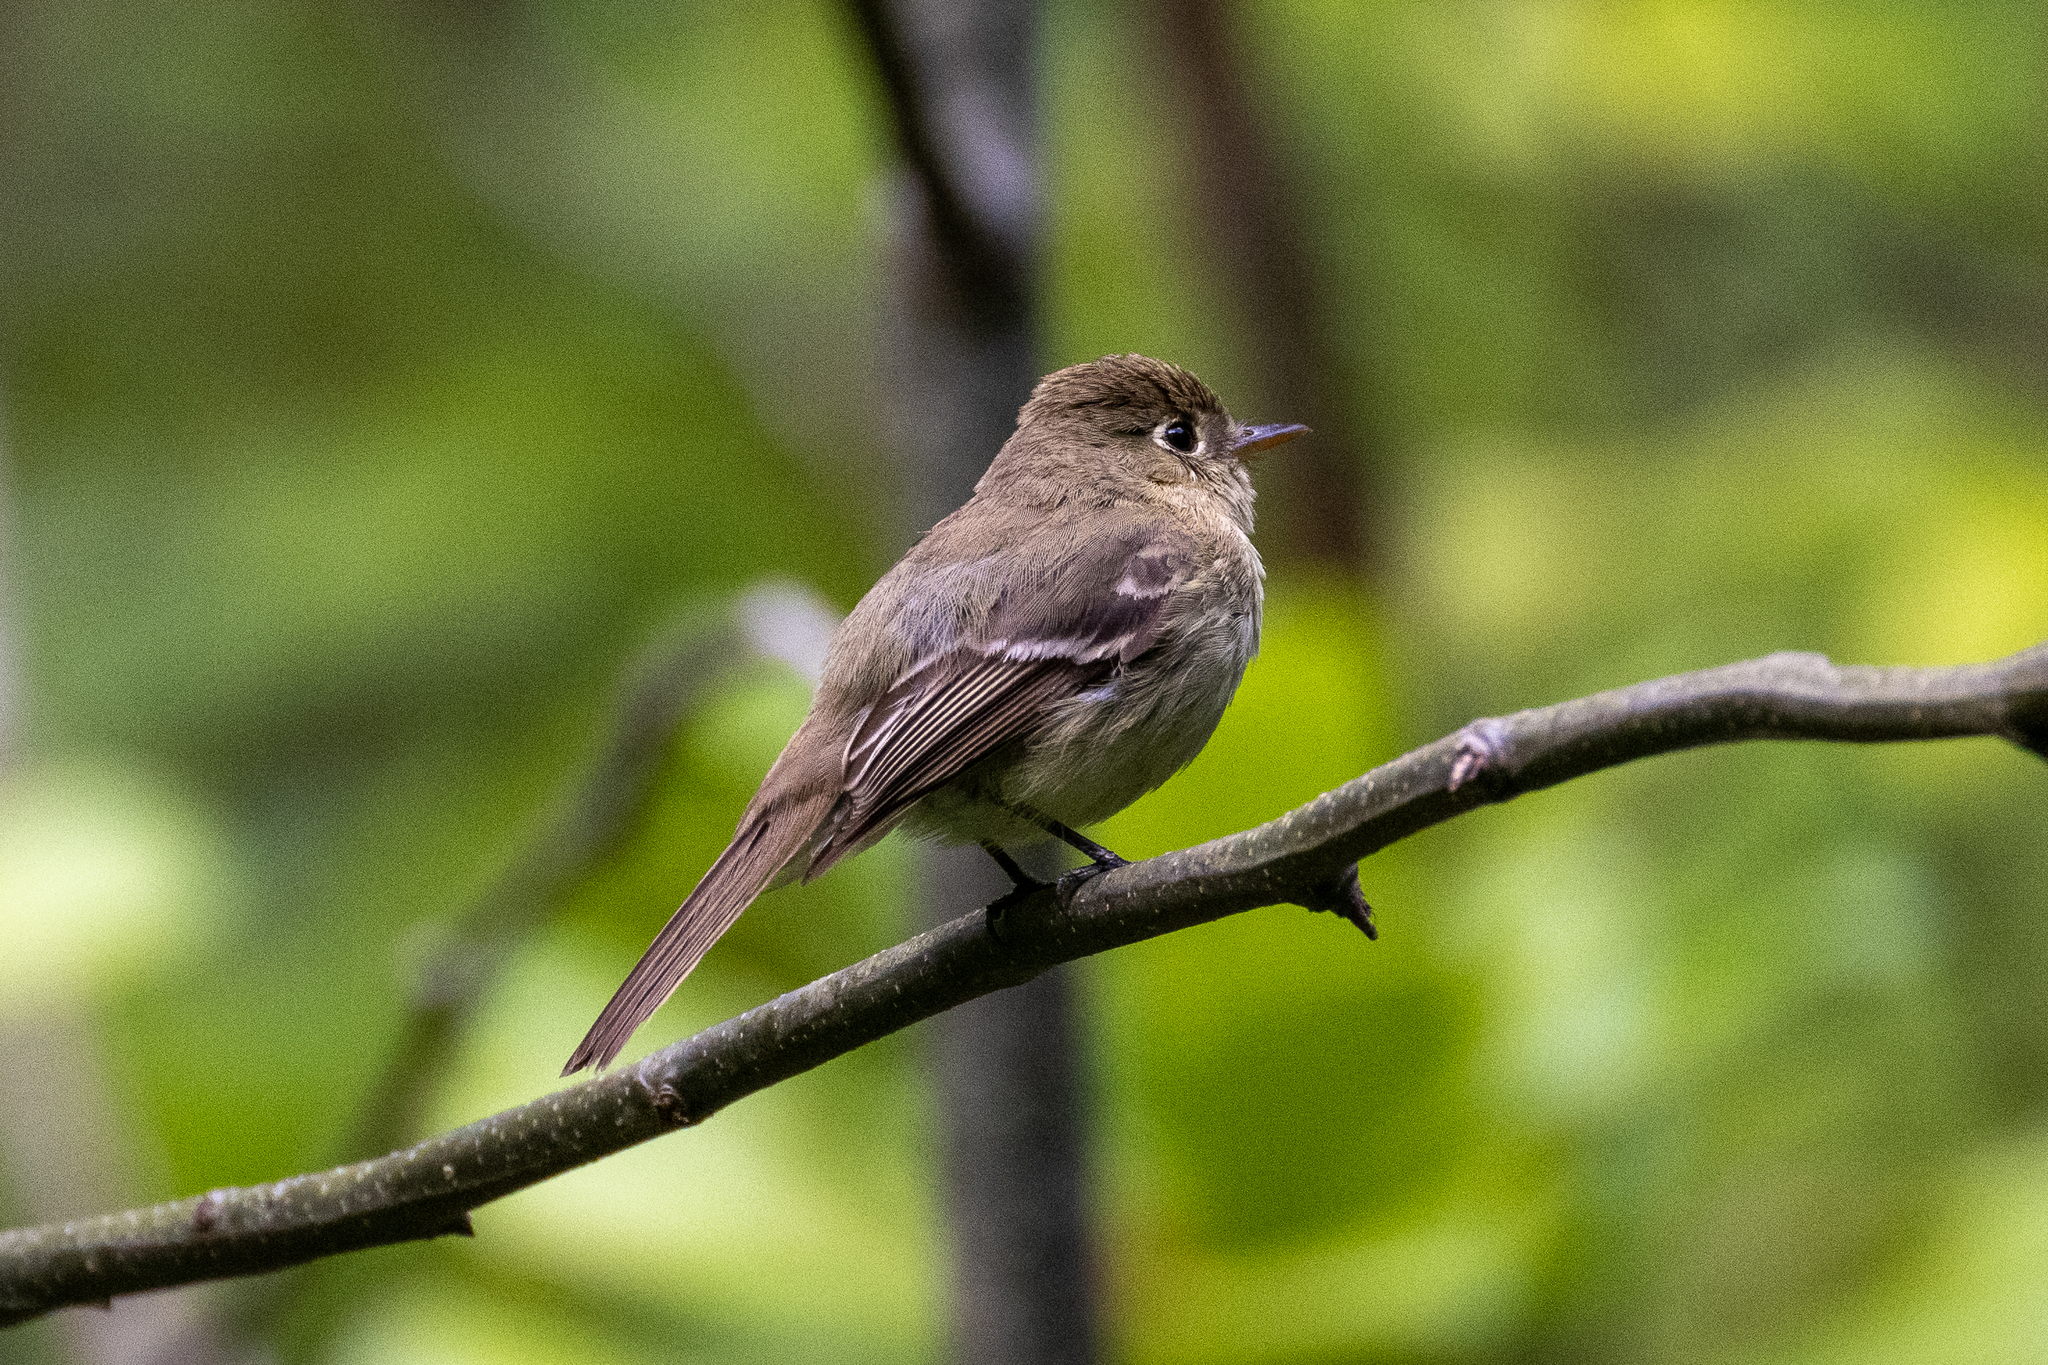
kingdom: Animalia
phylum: Chordata
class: Aves
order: Passeriformes
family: Tyrannidae
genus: Empidonax
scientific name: Empidonax difficilis
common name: Pacific-slope flycatcher
